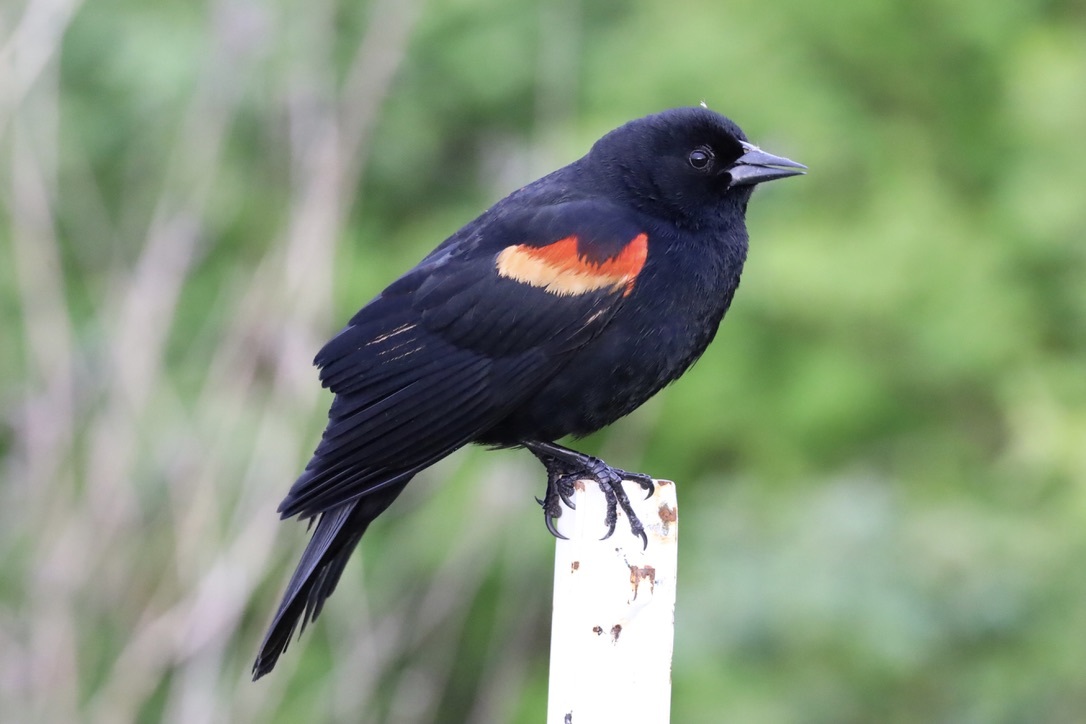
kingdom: Animalia
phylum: Chordata
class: Aves
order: Passeriformes
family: Icteridae
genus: Agelaius
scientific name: Agelaius phoeniceus
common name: Red-winged blackbird
